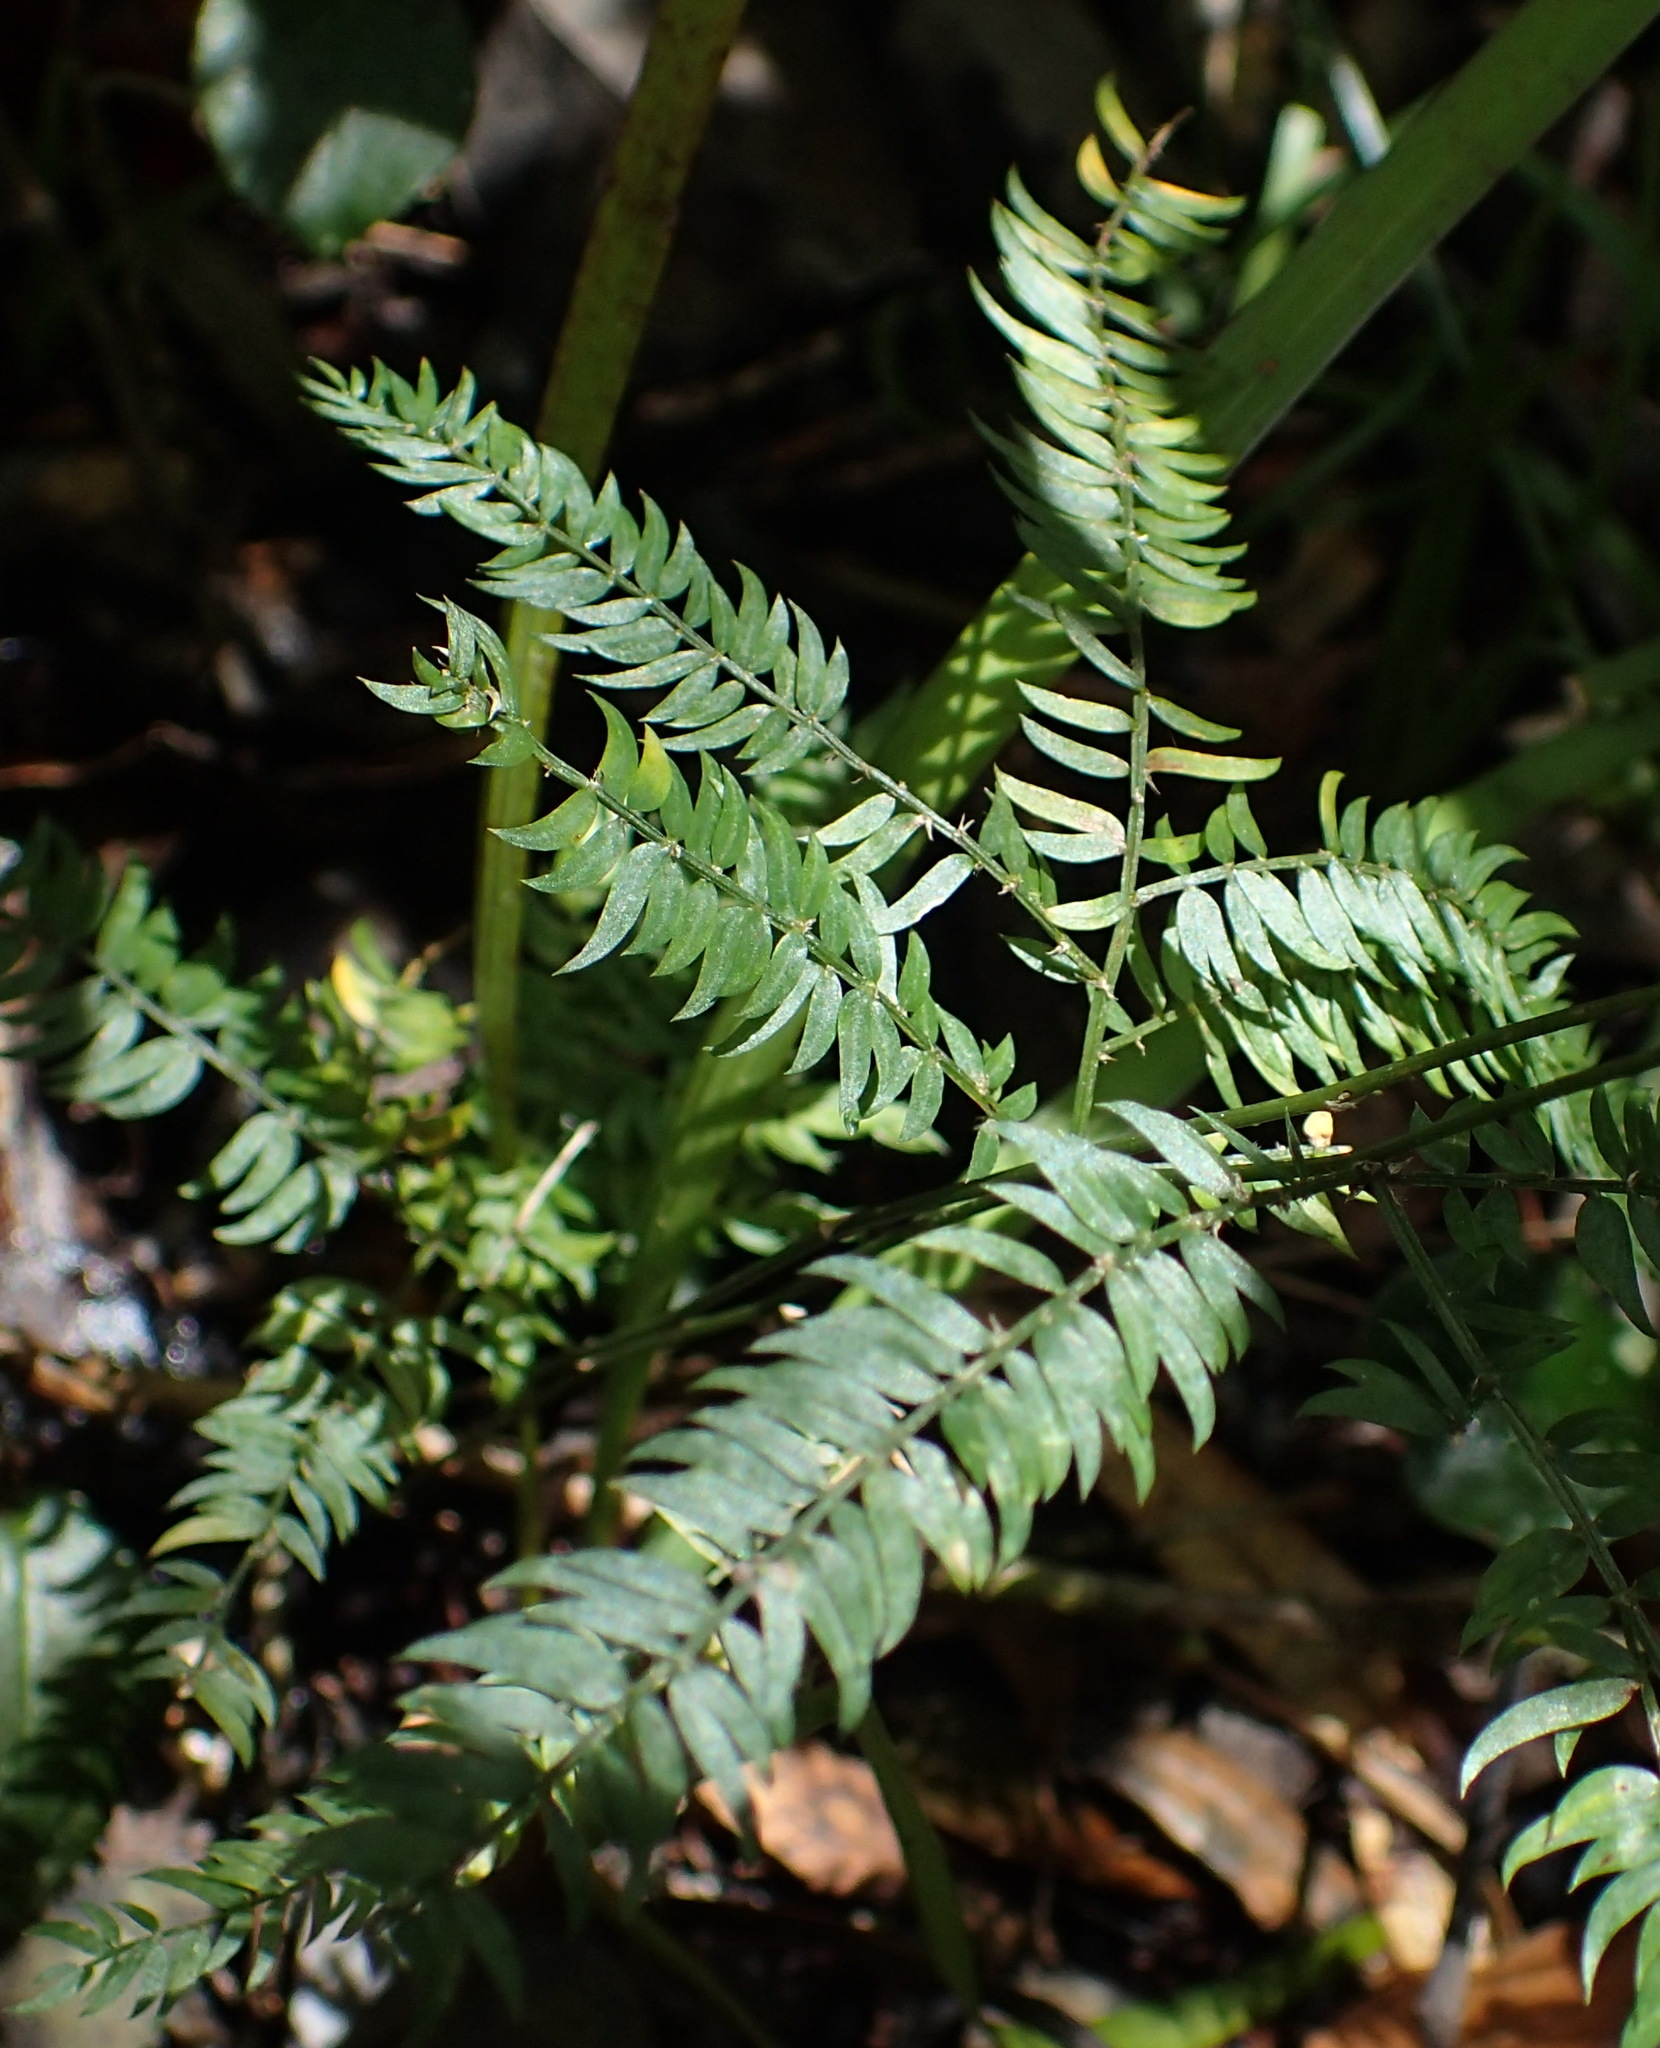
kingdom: Plantae
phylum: Tracheophyta
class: Liliopsida
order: Asparagales
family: Asparagaceae
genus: Asparagus
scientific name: Asparagus scandens
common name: Asparagus-fern
